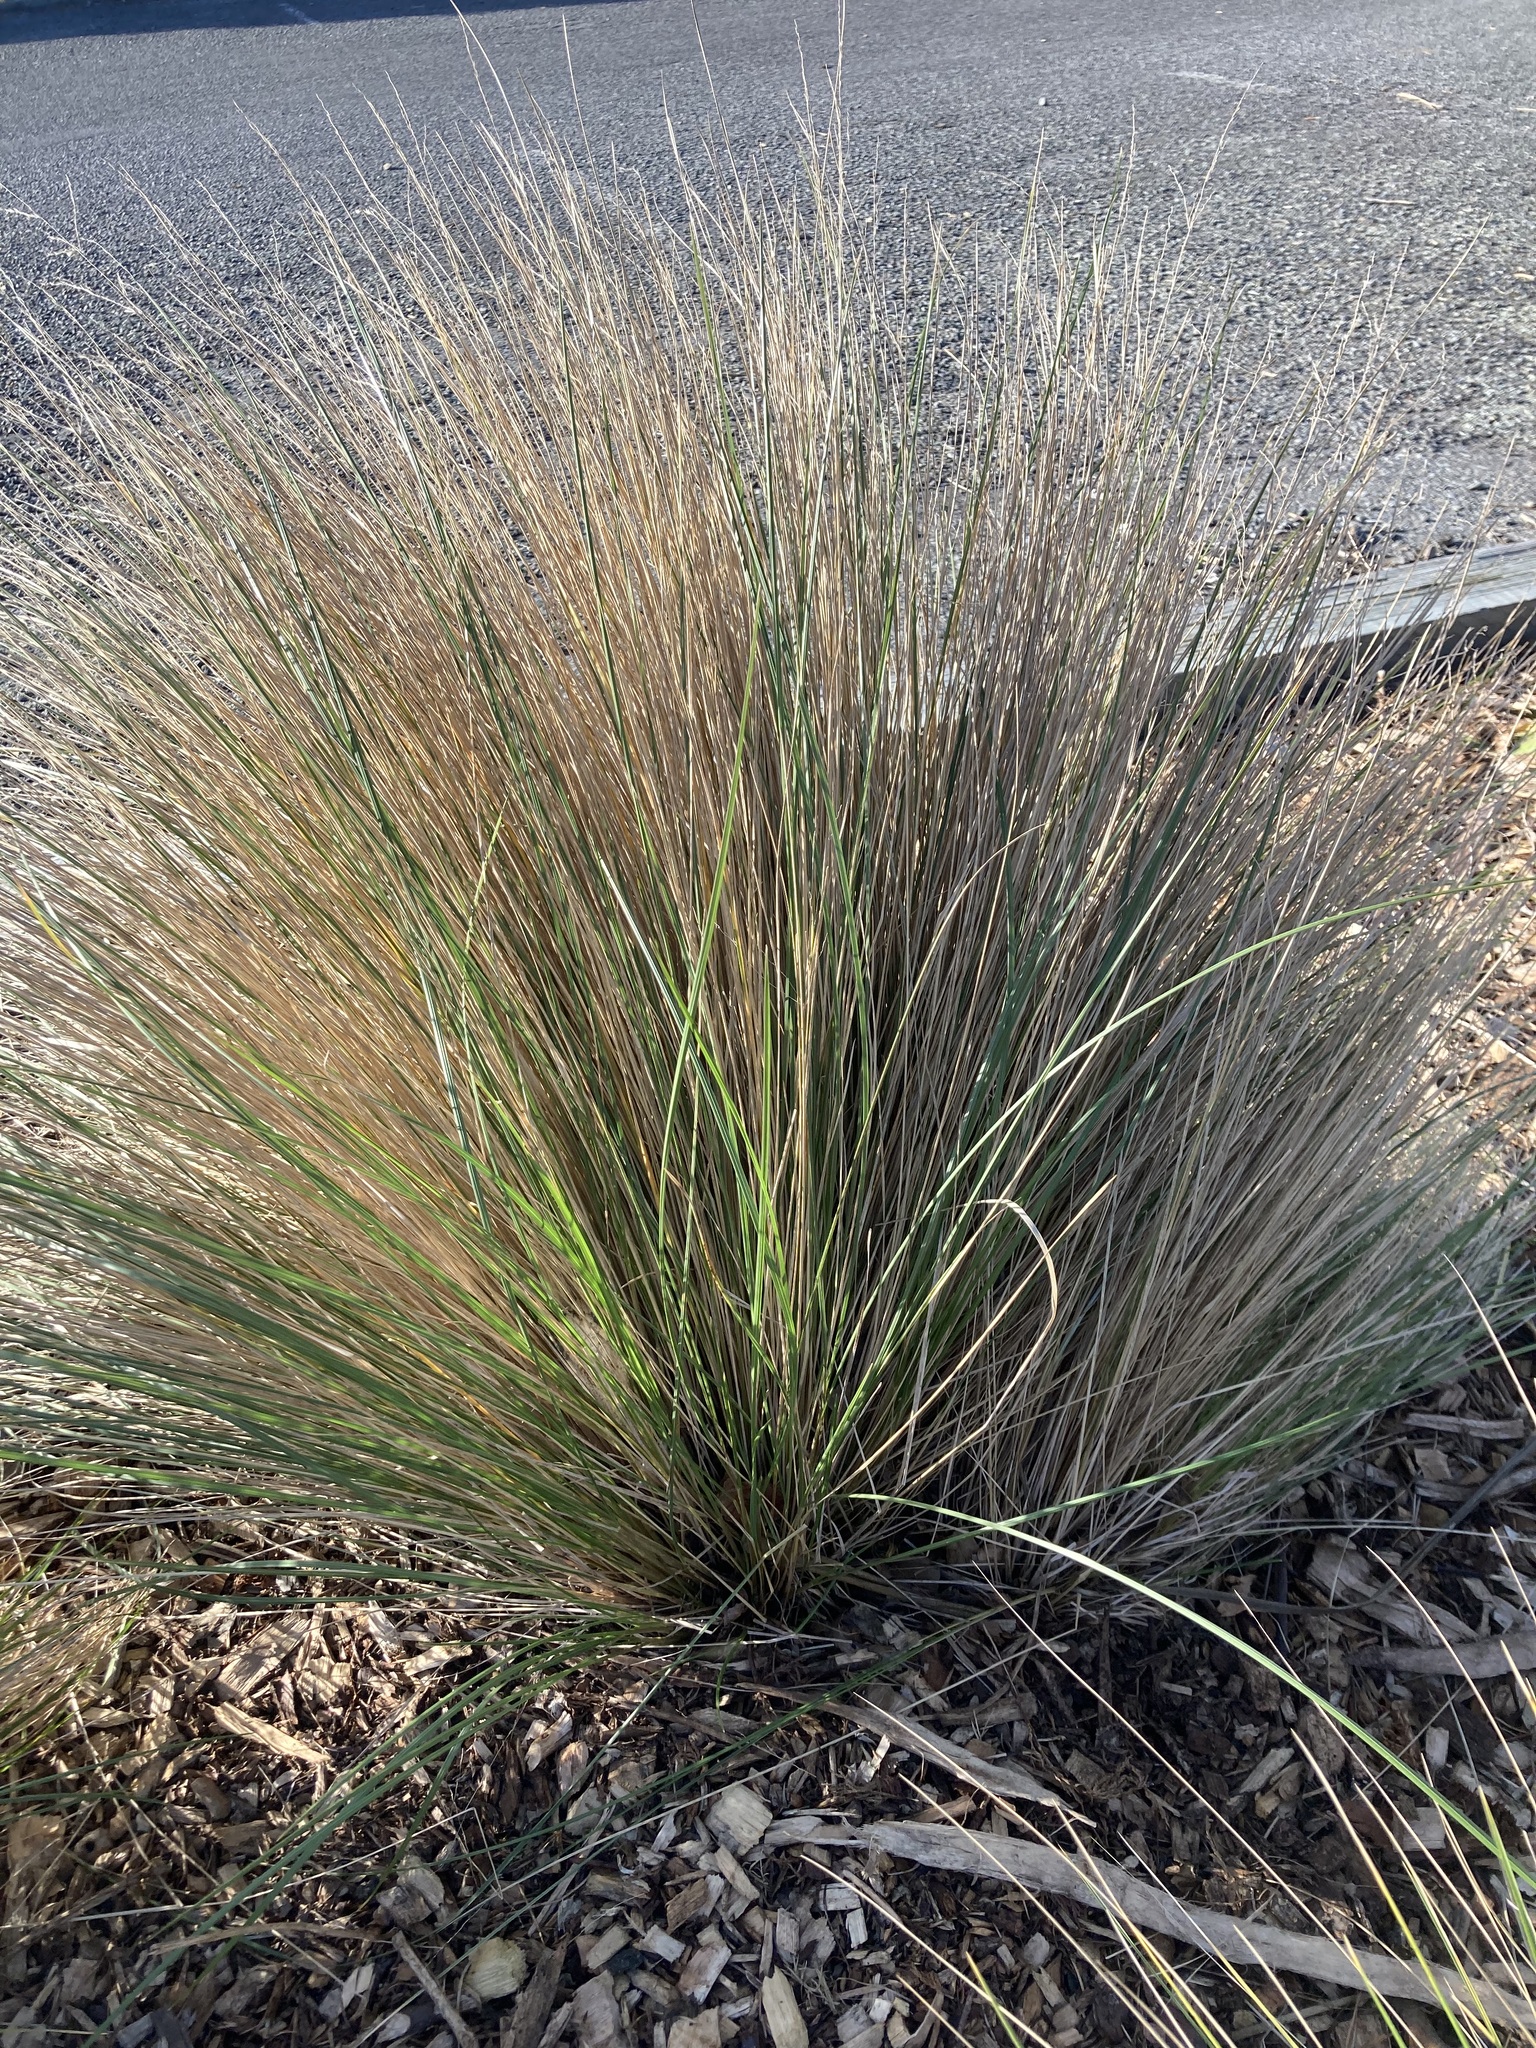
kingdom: Plantae
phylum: Tracheophyta
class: Liliopsida
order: Poales
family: Poaceae
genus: Poa
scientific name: Poa cita
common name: Silver tussock
